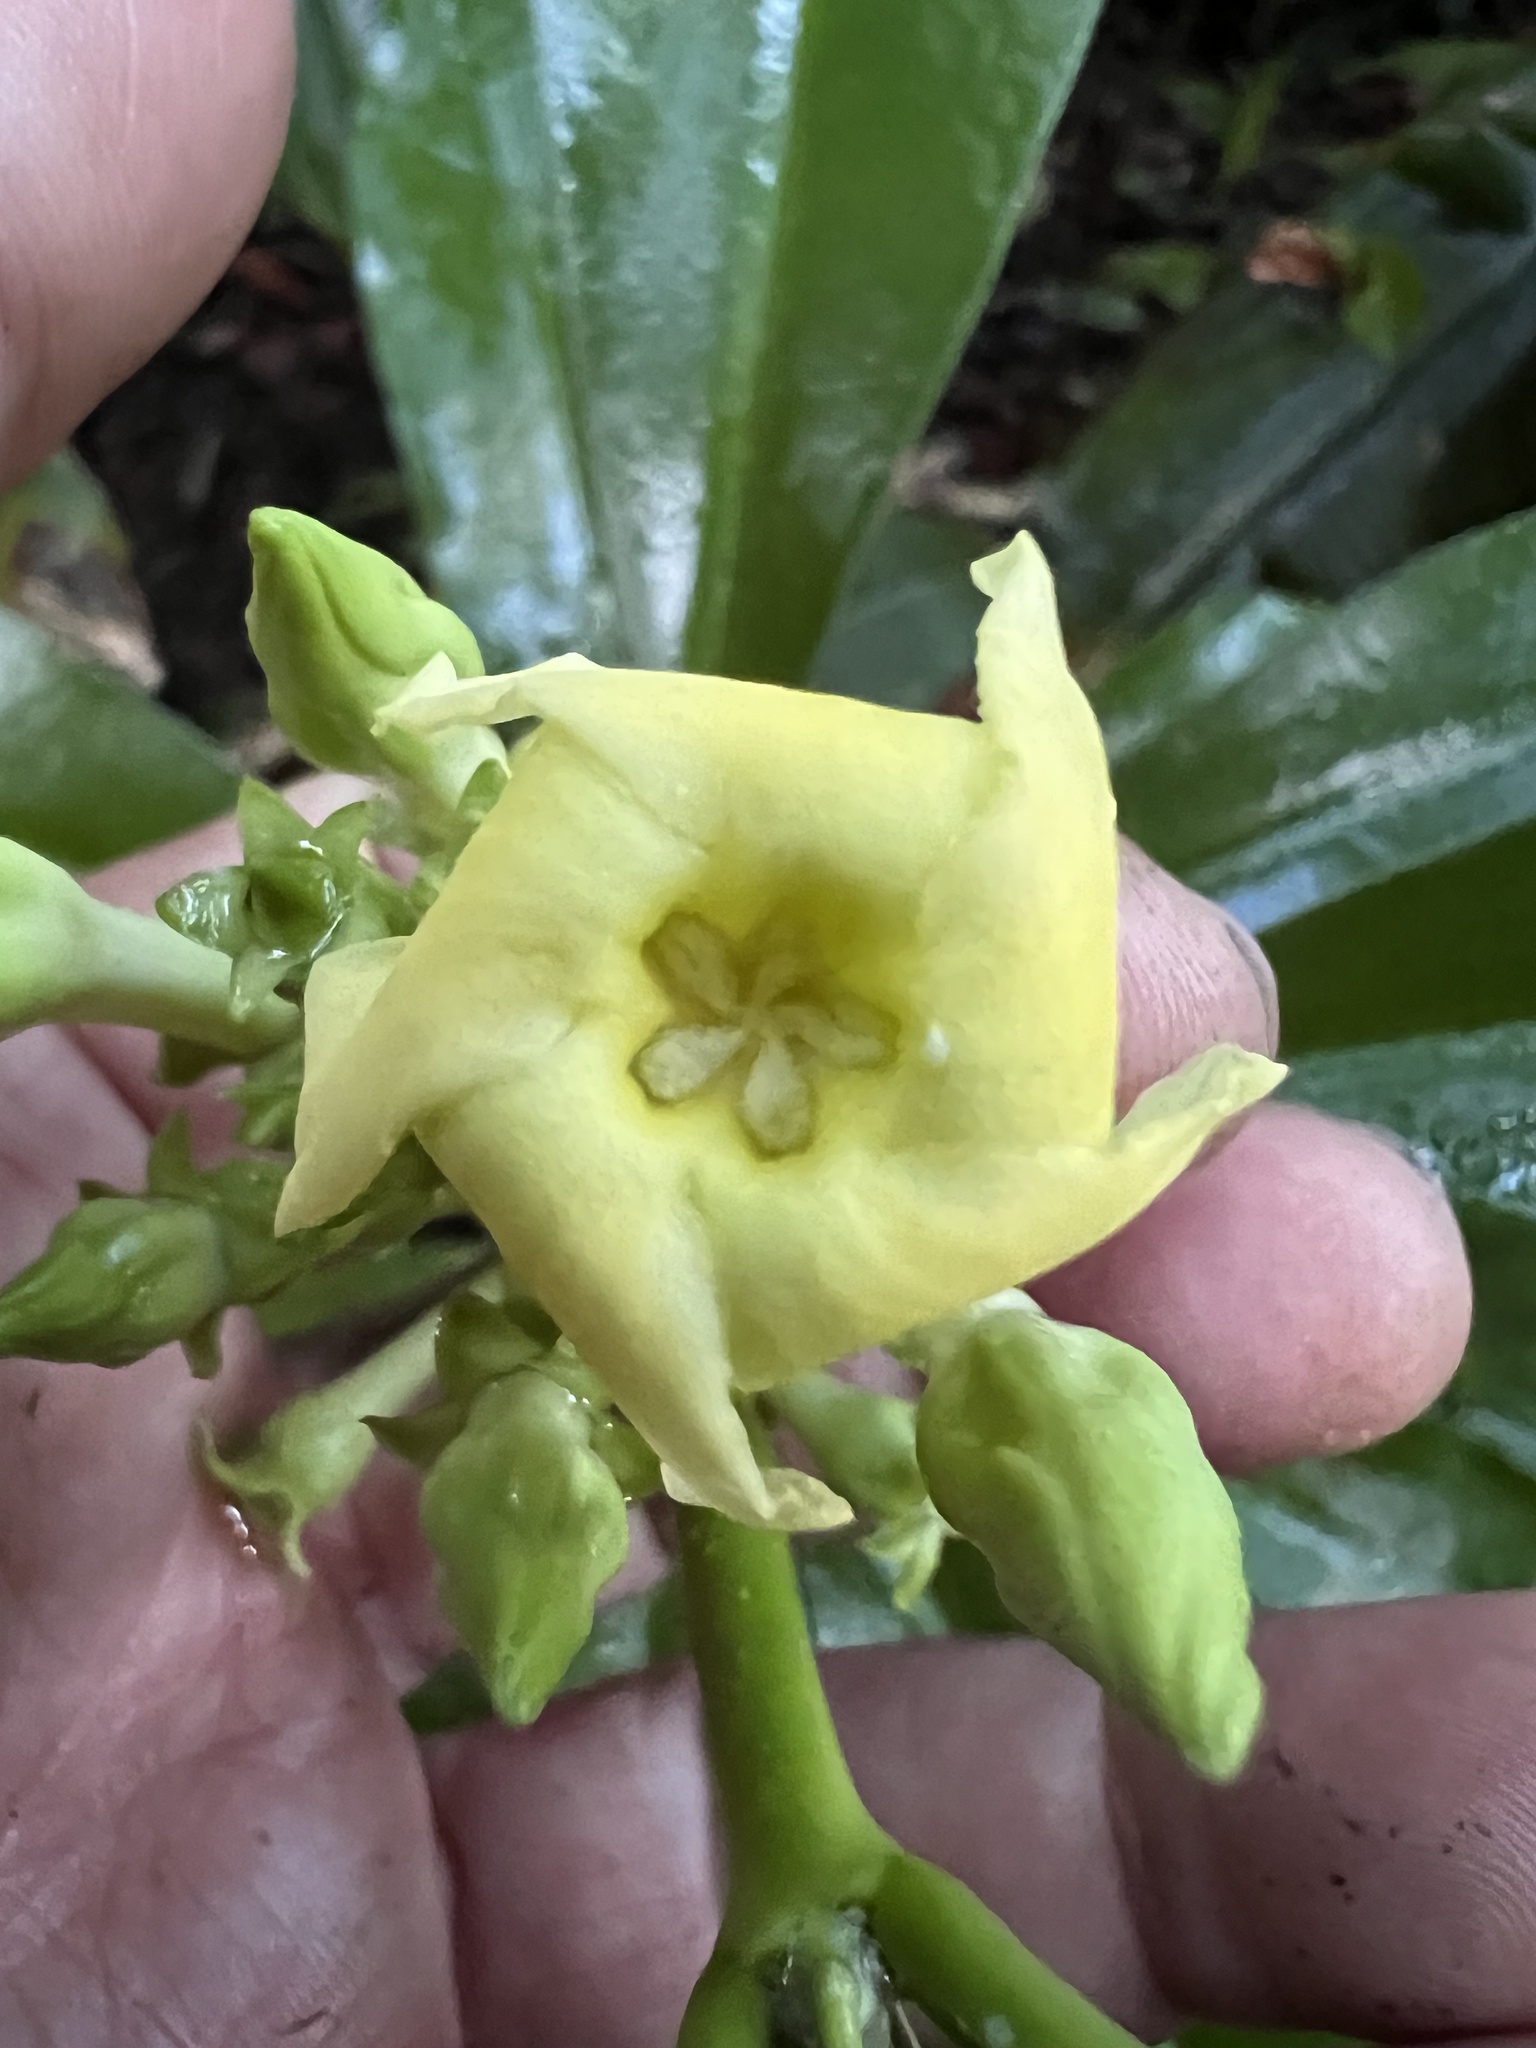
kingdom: Plantae
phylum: Tracheophyta
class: Magnoliopsida
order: Gentianales
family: Apocynaceae
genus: Thevetia
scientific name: Thevetia ahouai
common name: Broadleaf thevetia
